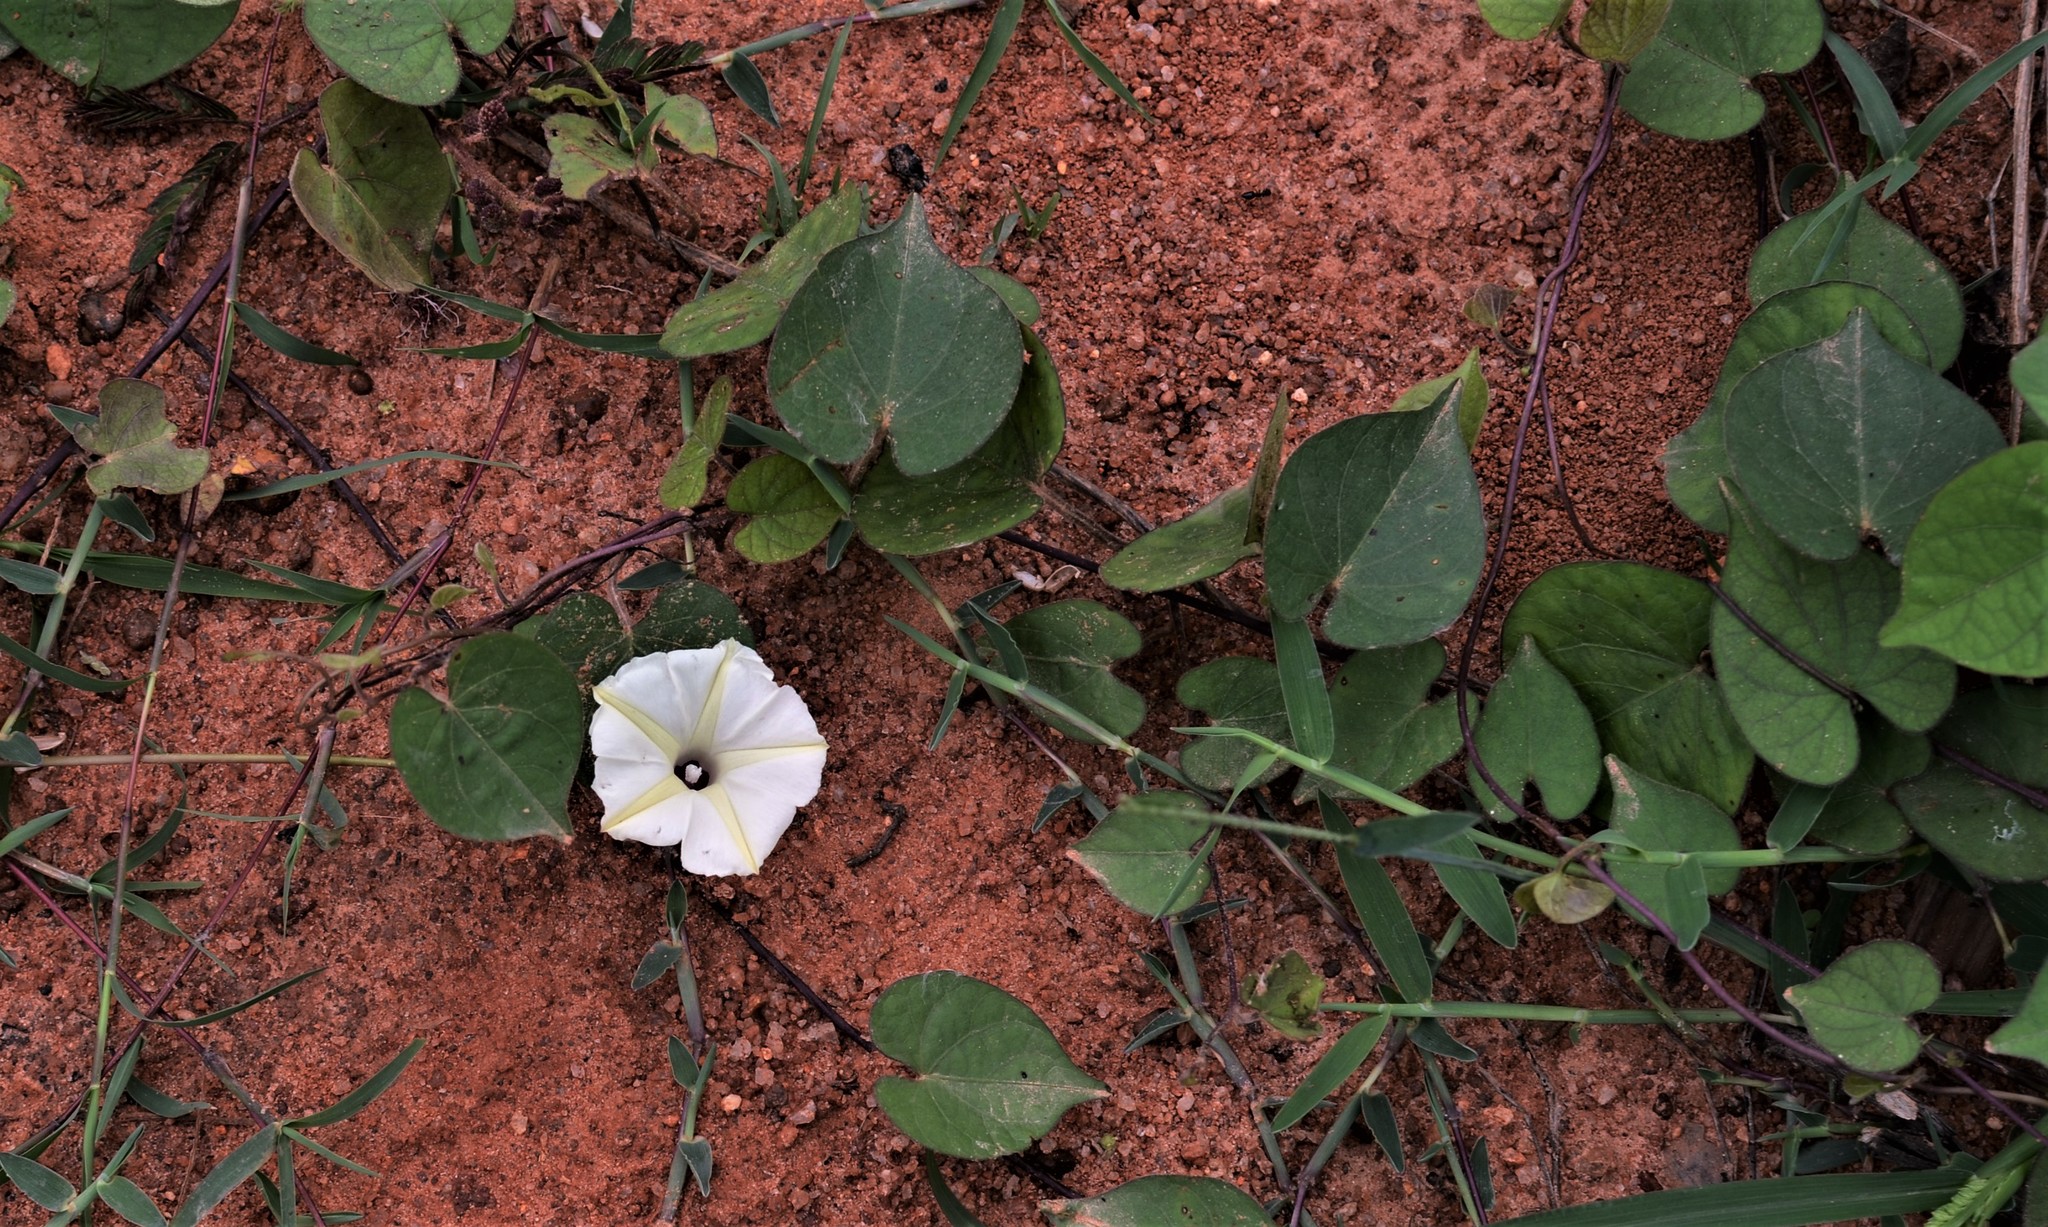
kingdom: Plantae
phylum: Tracheophyta
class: Magnoliopsida
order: Solanales
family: Convolvulaceae
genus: Ipomoea
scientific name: Ipomoea obscura
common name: Obscure morning-glory
